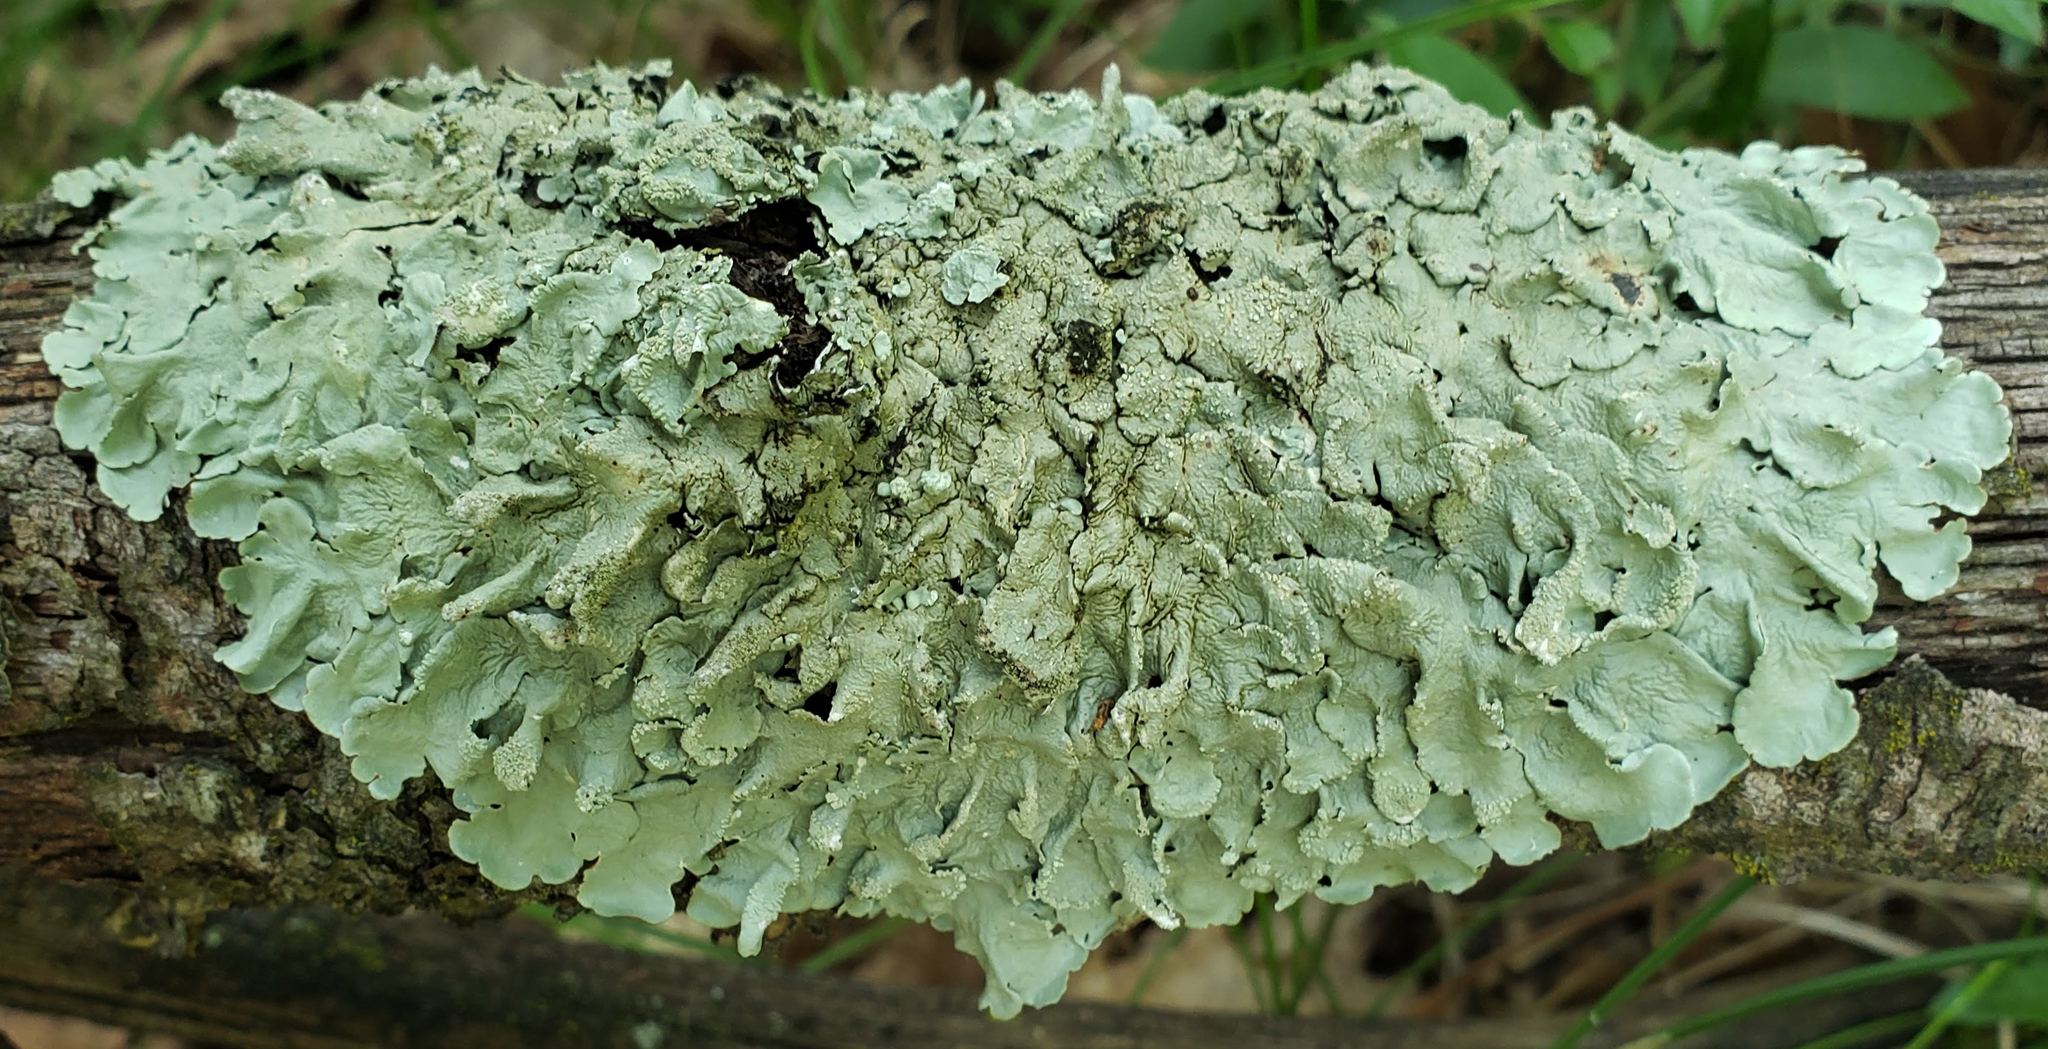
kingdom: Fungi
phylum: Ascomycota
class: Lecanoromycetes
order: Lecanorales
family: Parmeliaceae
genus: Flavoparmelia
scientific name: Flavoparmelia caperata
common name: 40-mile per hour lichen
